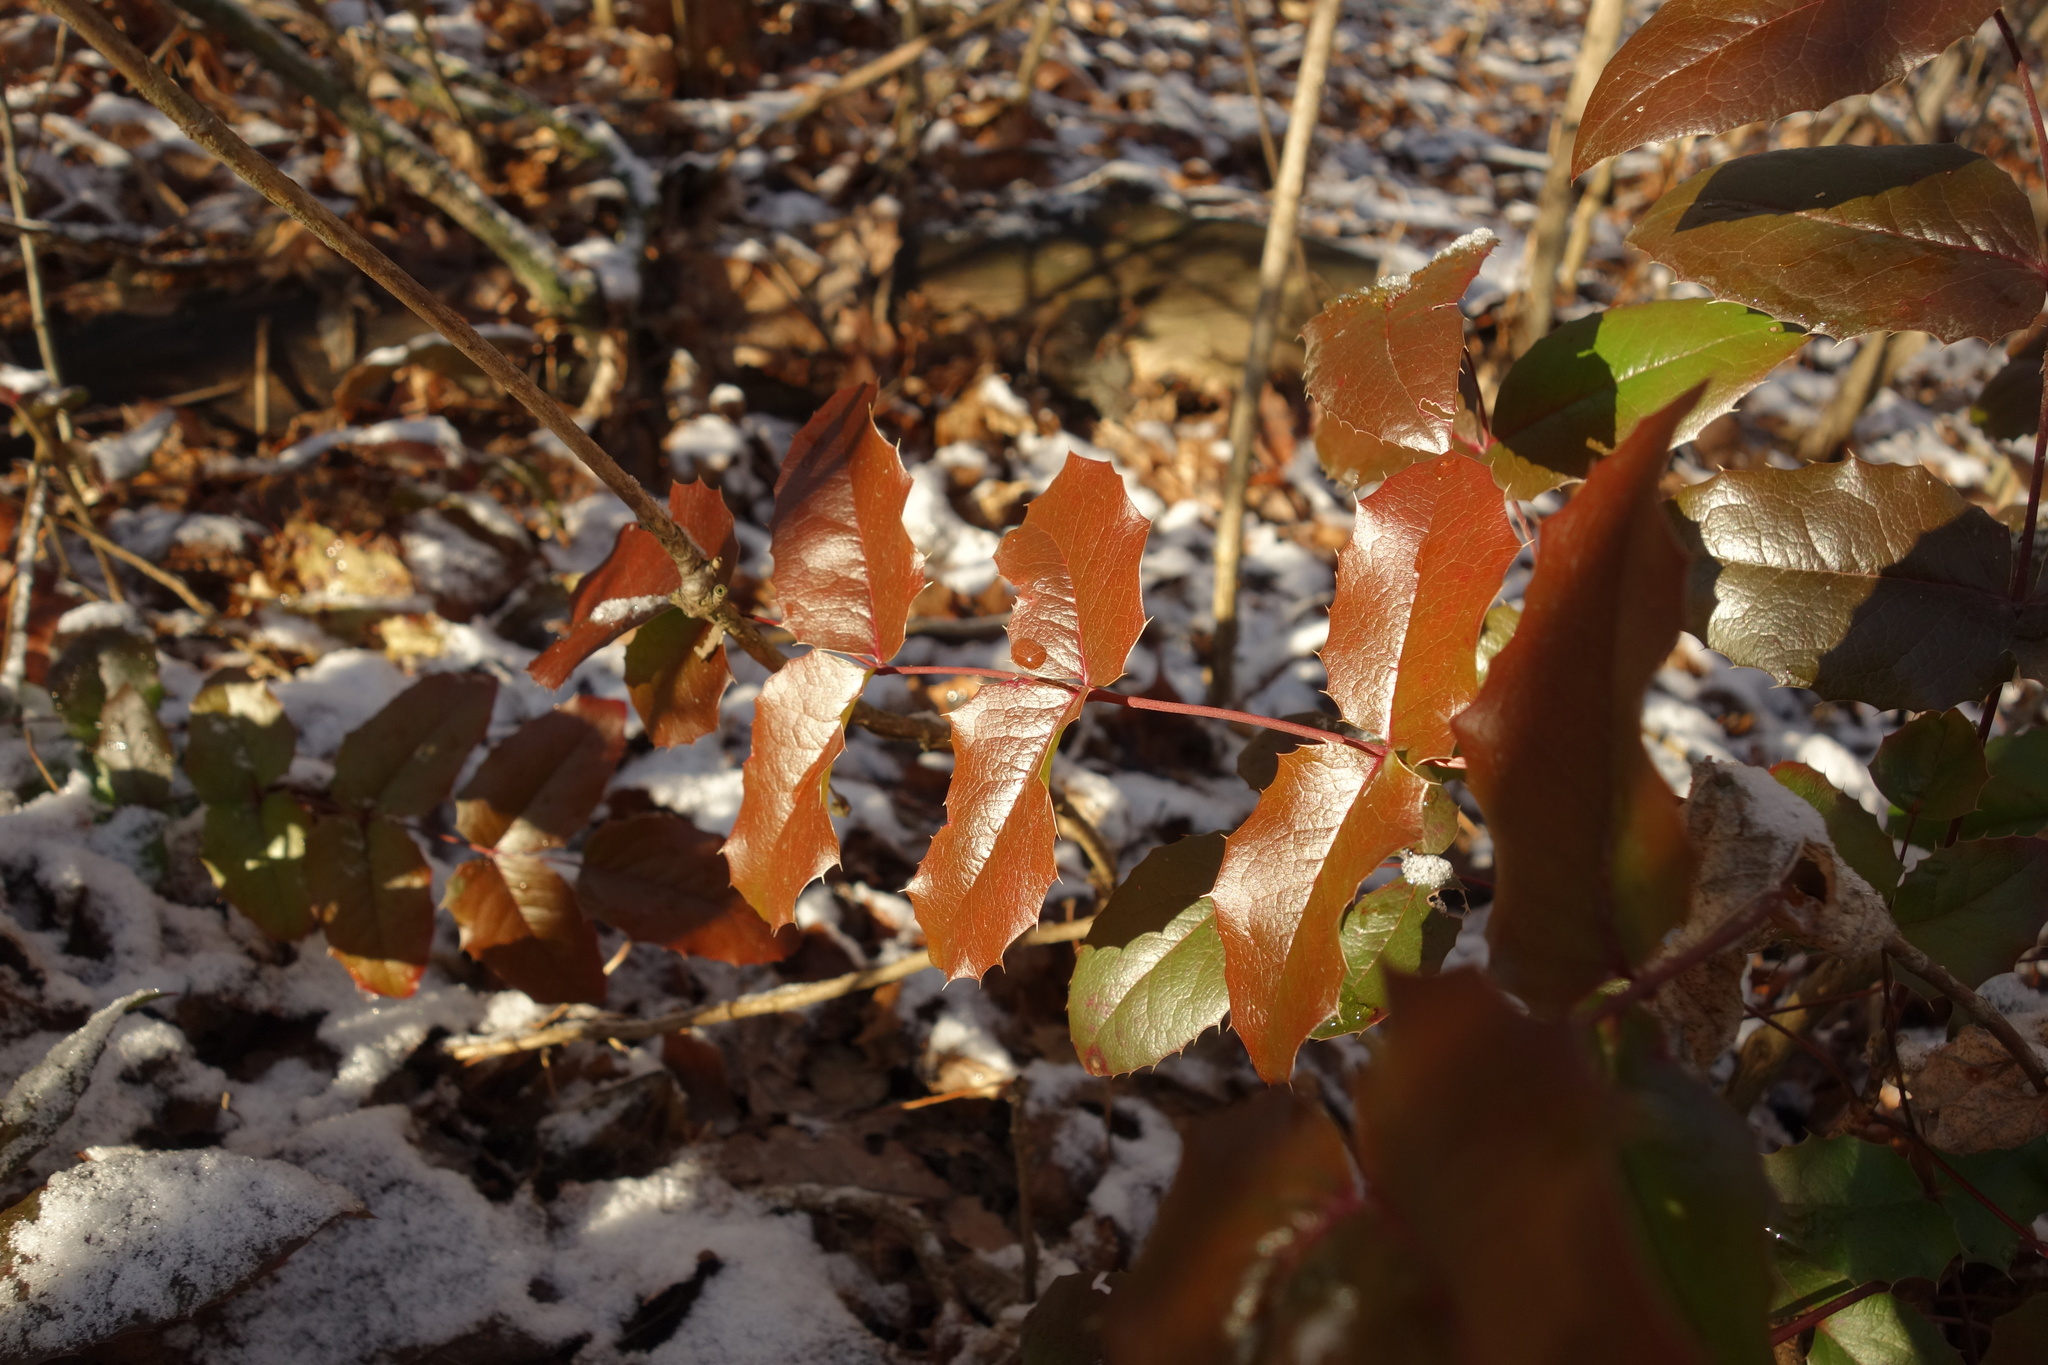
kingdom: Plantae
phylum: Tracheophyta
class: Magnoliopsida
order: Ranunculales
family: Berberidaceae
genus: Mahonia
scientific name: Mahonia aquifolium
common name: Oregon-grape
